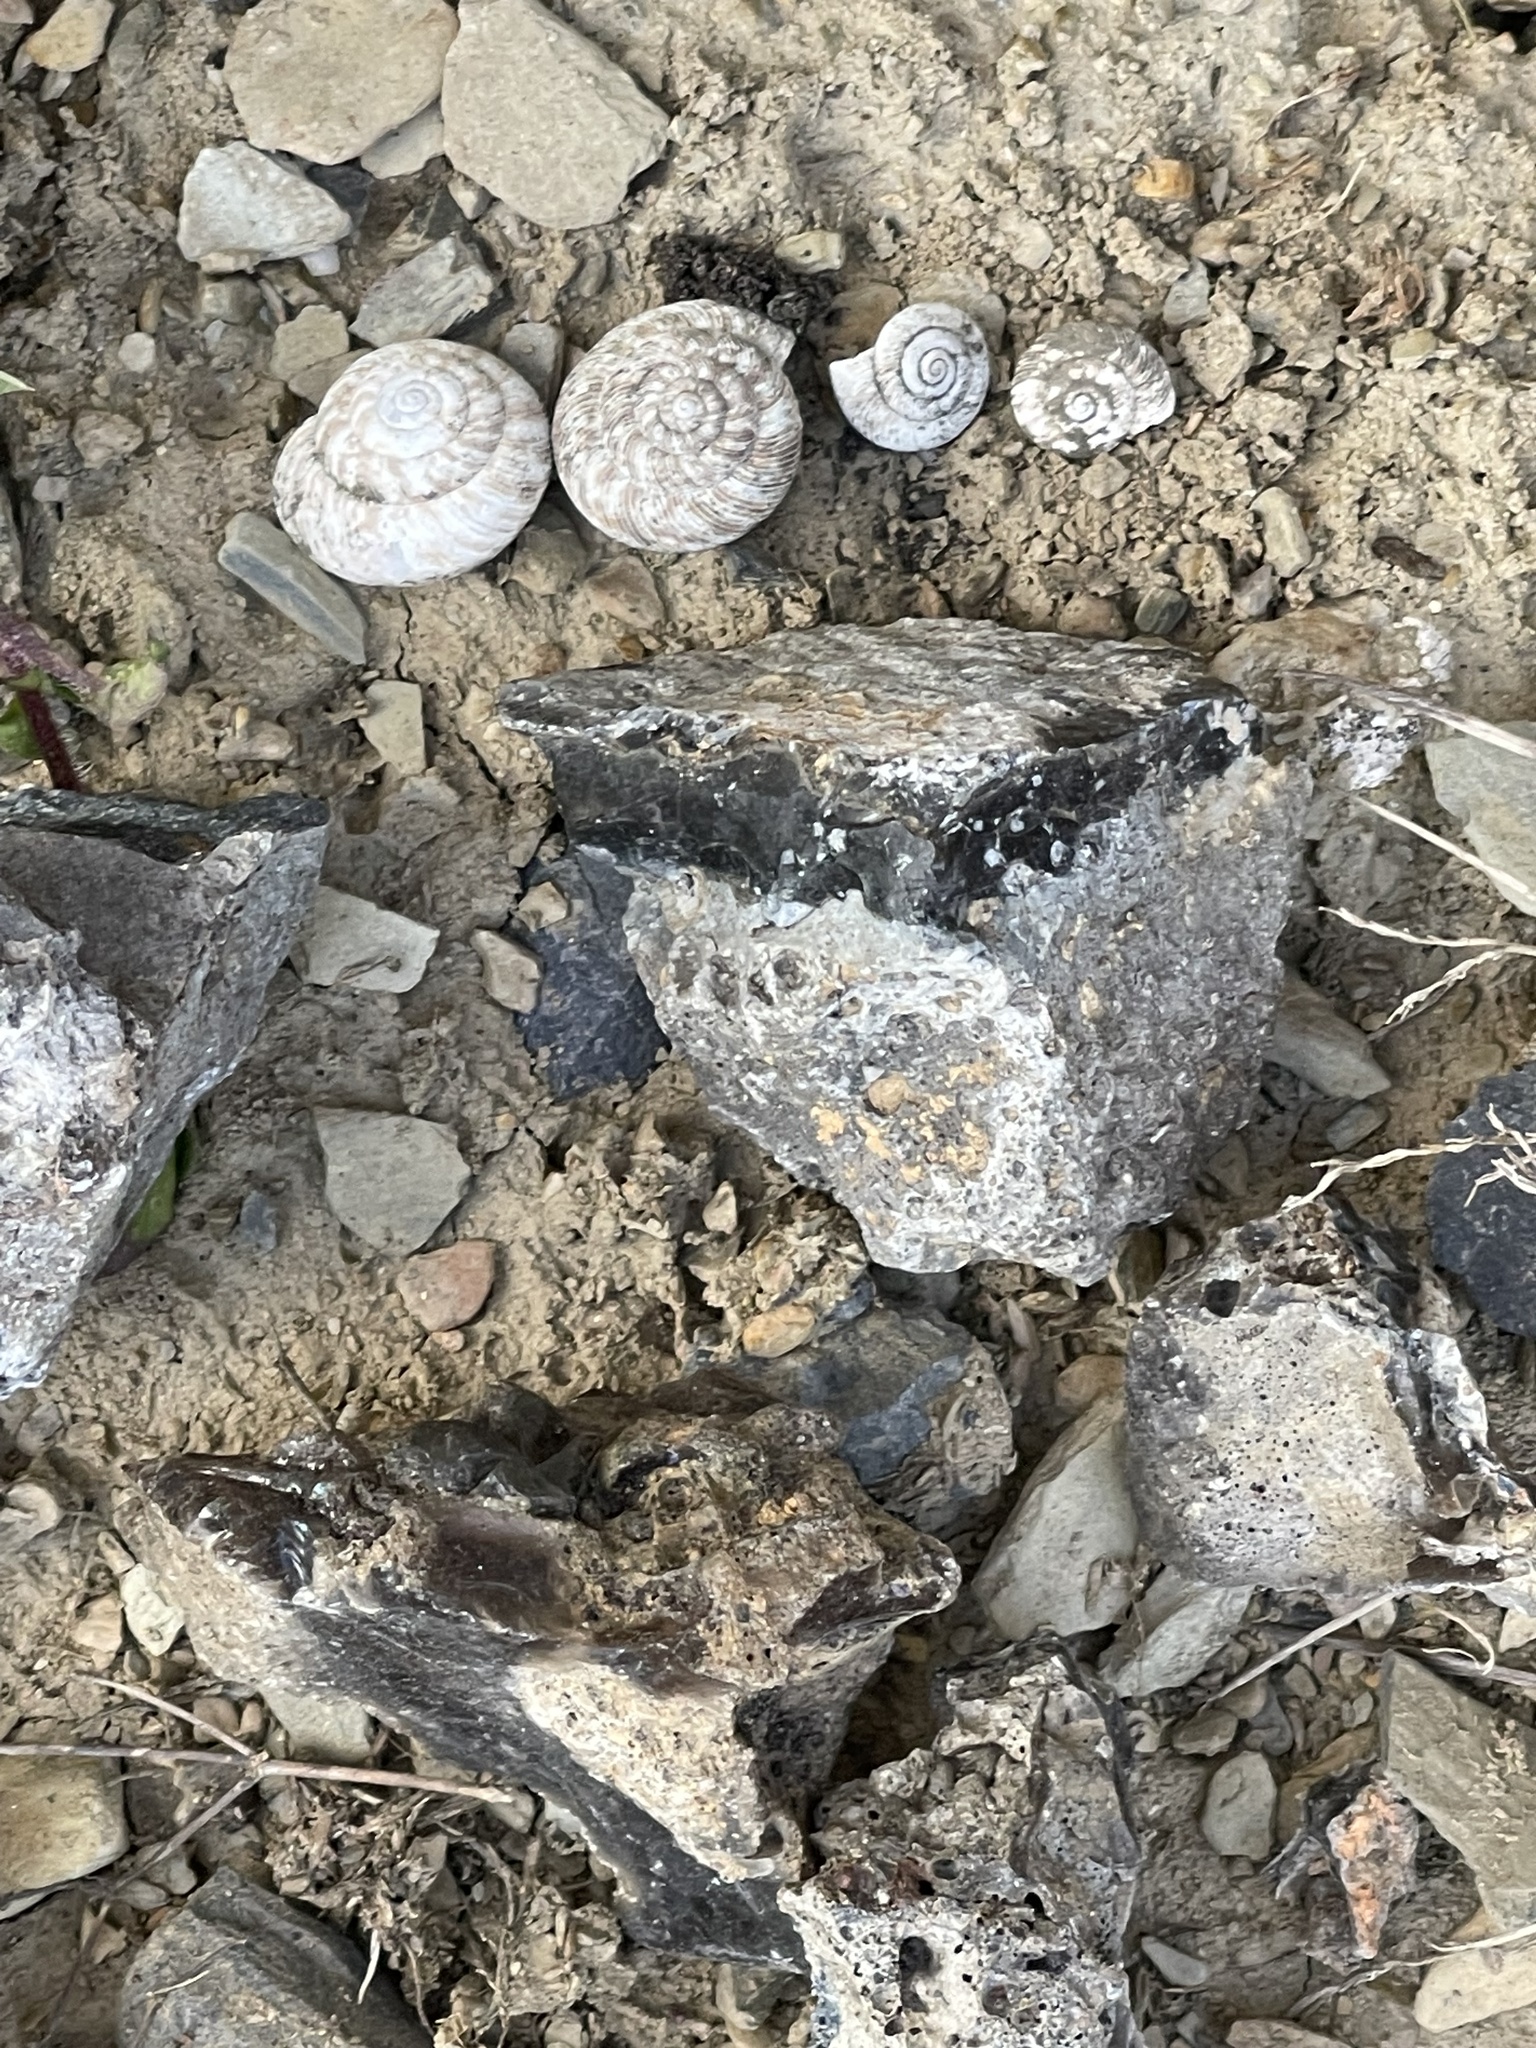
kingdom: Animalia
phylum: Mollusca
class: Gastropoda
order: Stylommatophora
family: Discidae
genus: Anguispira
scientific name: Anguispira alternata
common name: Flamed tigersnail
